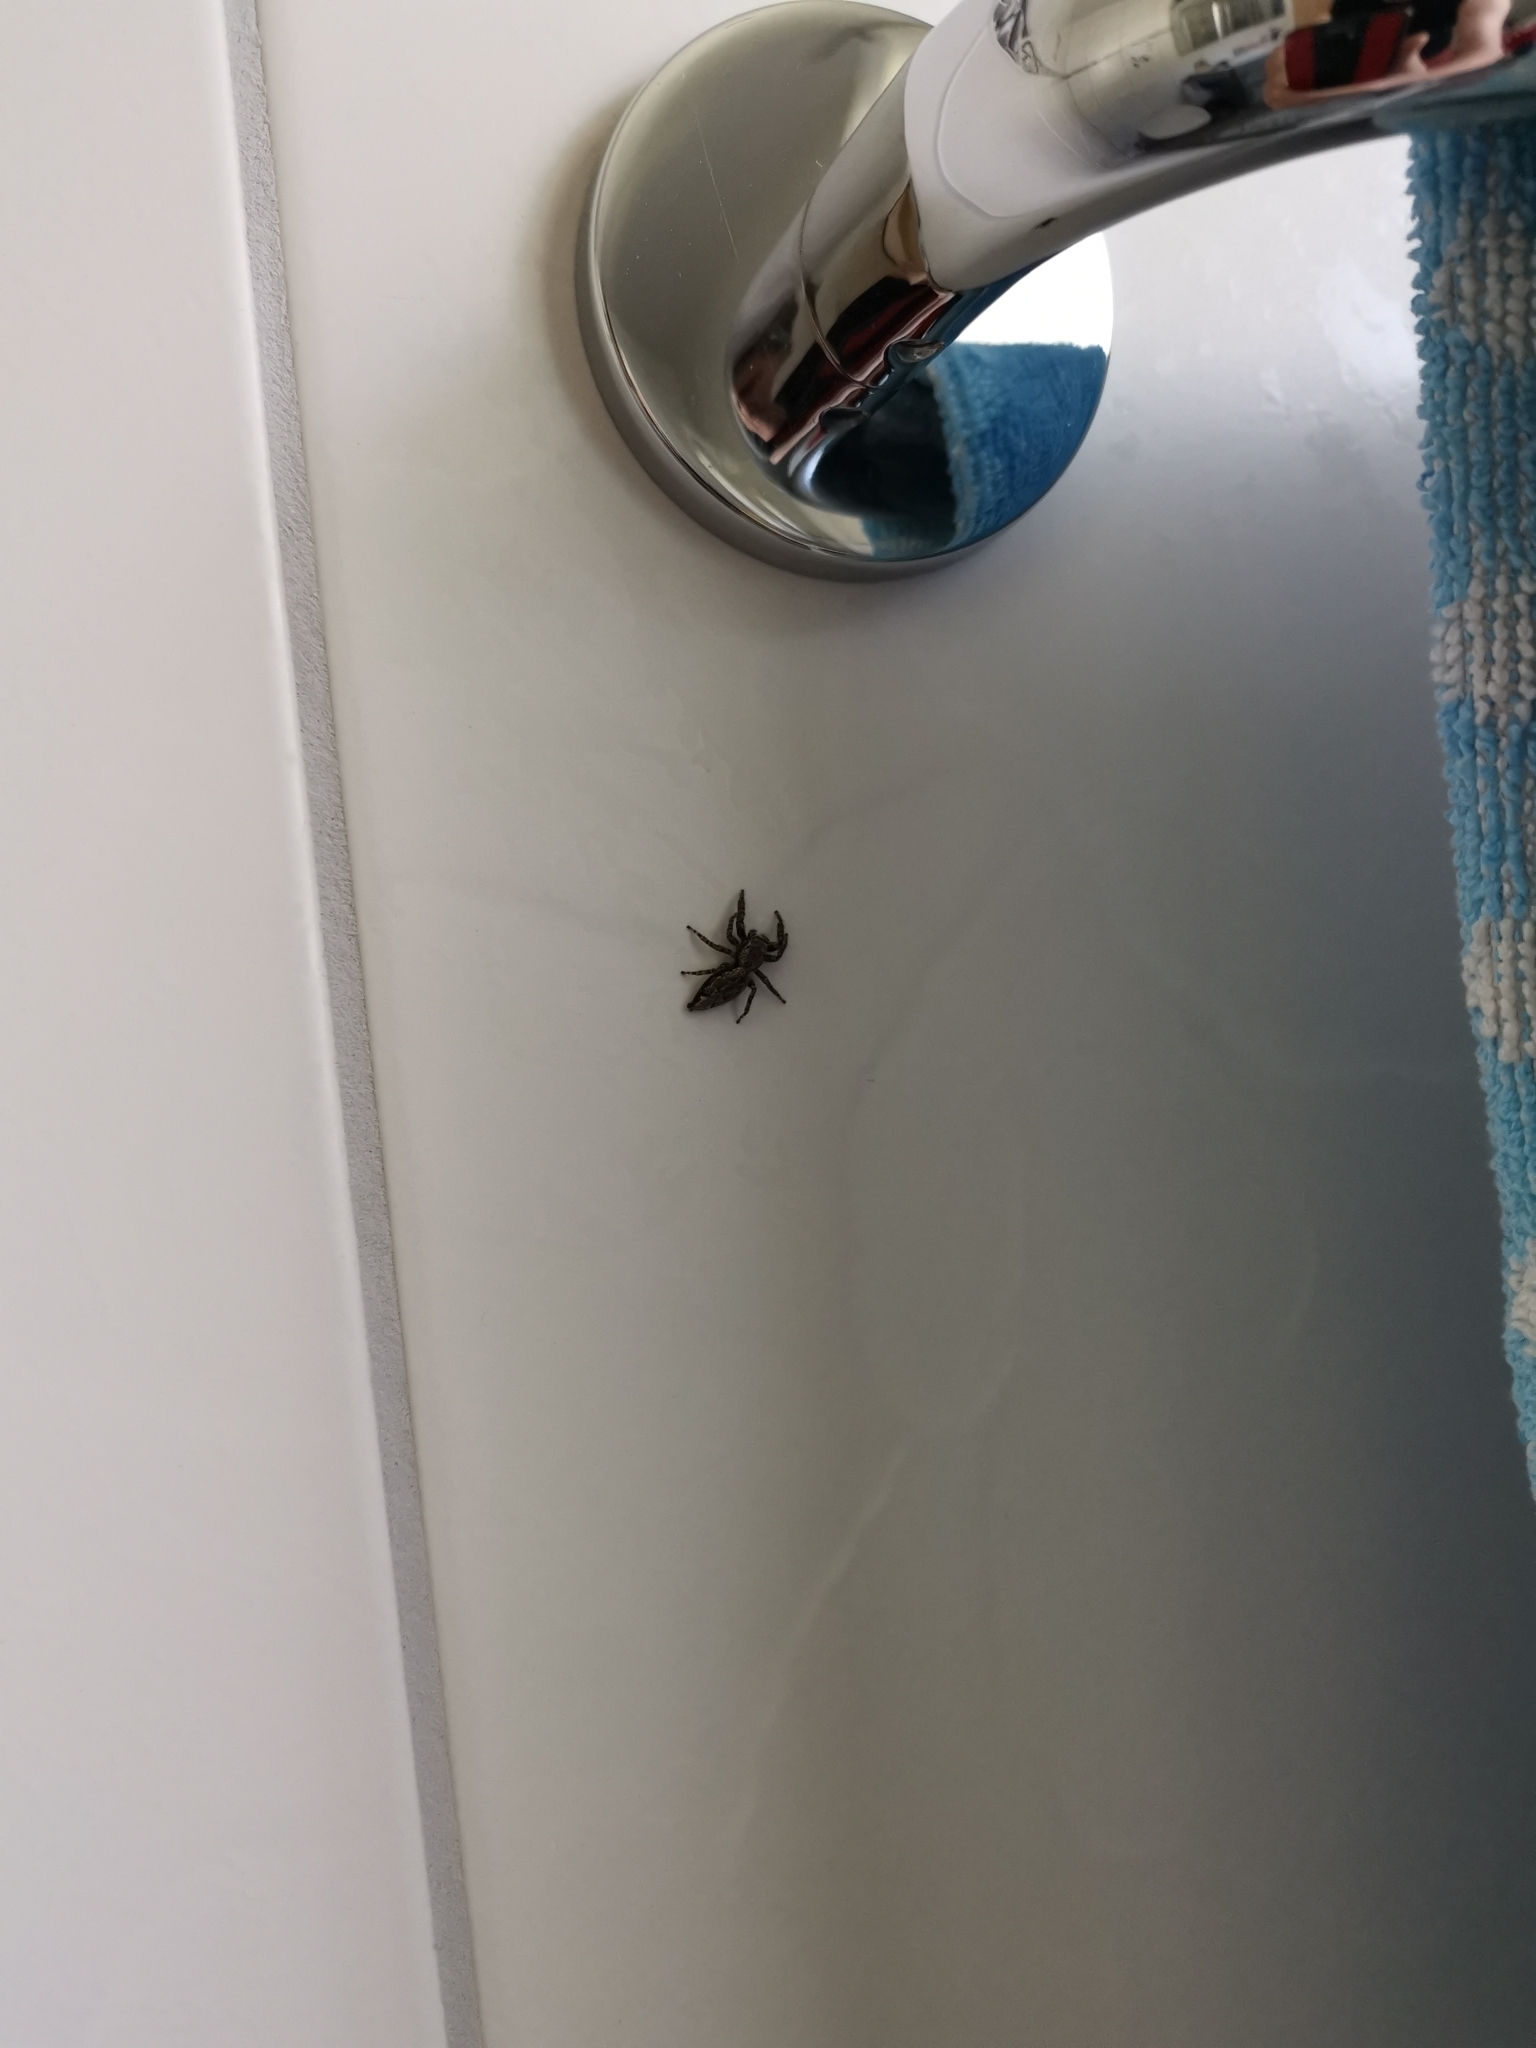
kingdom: Animalia
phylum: Arthropoda
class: Arachnida
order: Araneae
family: Salticidae
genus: Marpissa
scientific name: Marpissa muscosa
